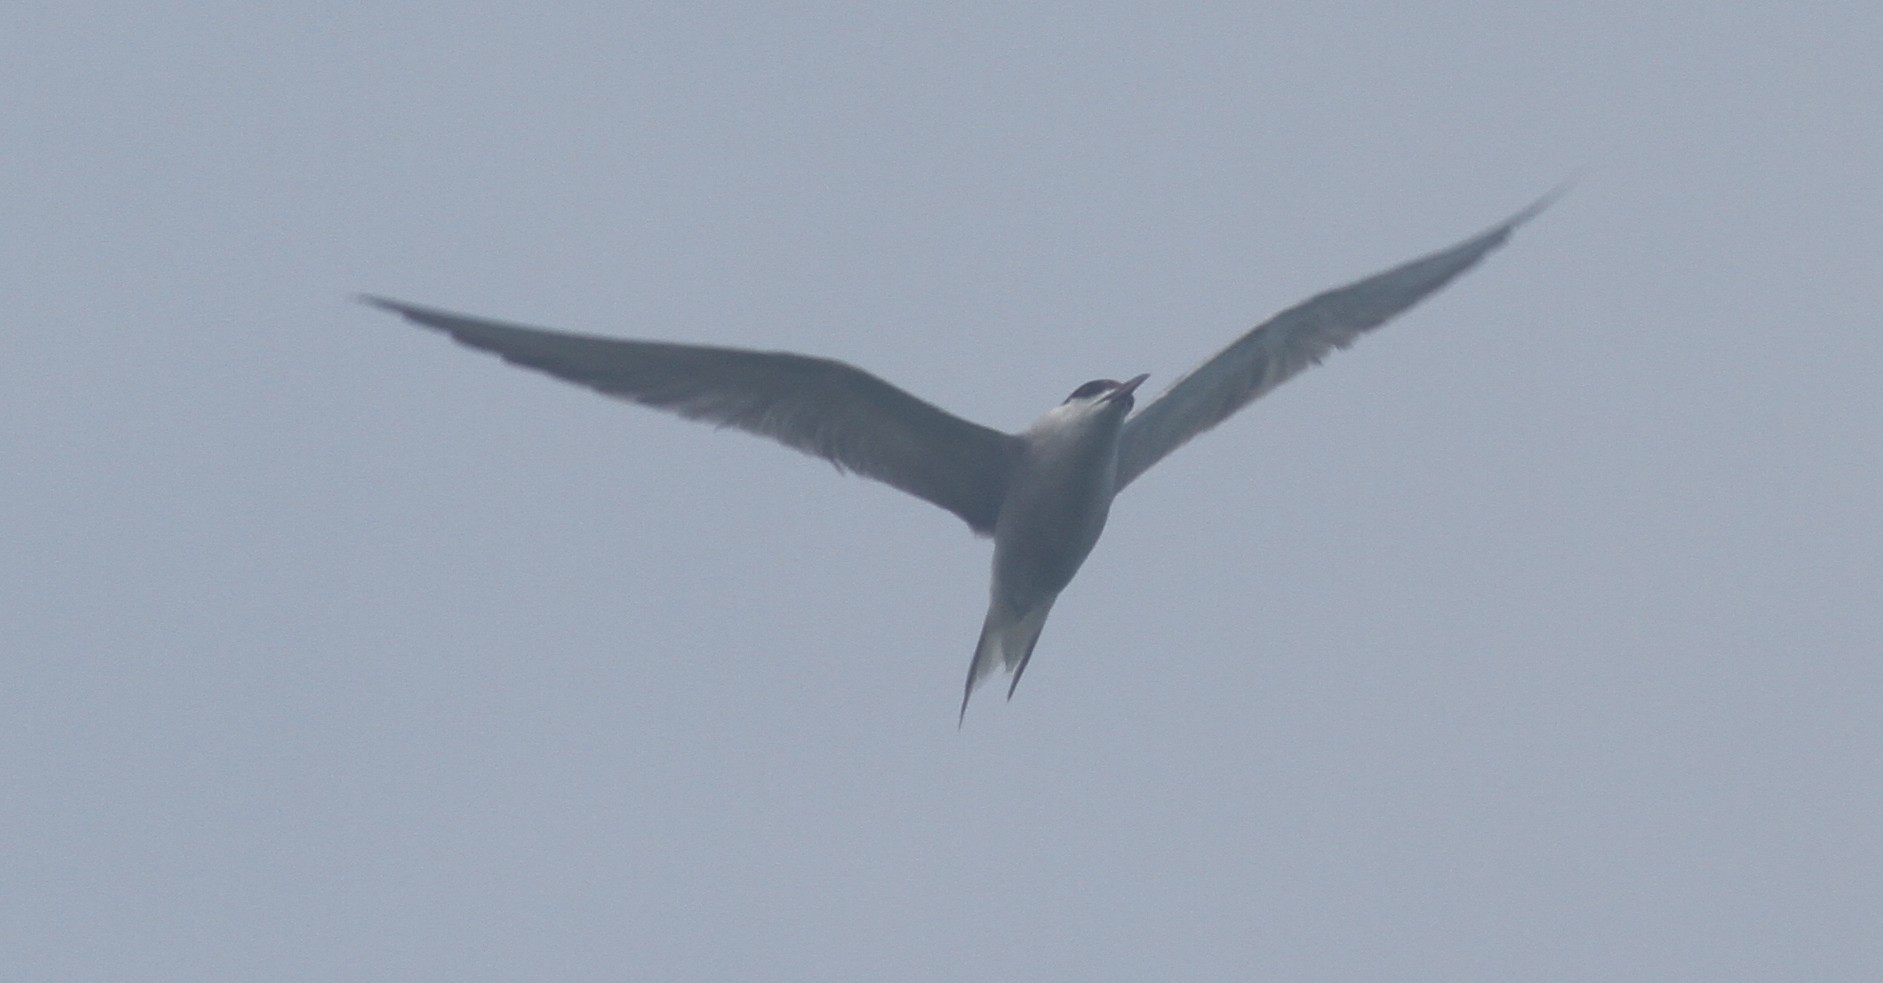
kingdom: Animalia
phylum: Chordata
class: Aves
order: Charadriiformes
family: Laridae
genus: Sterna
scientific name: Sterna hirundo
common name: Common tern
